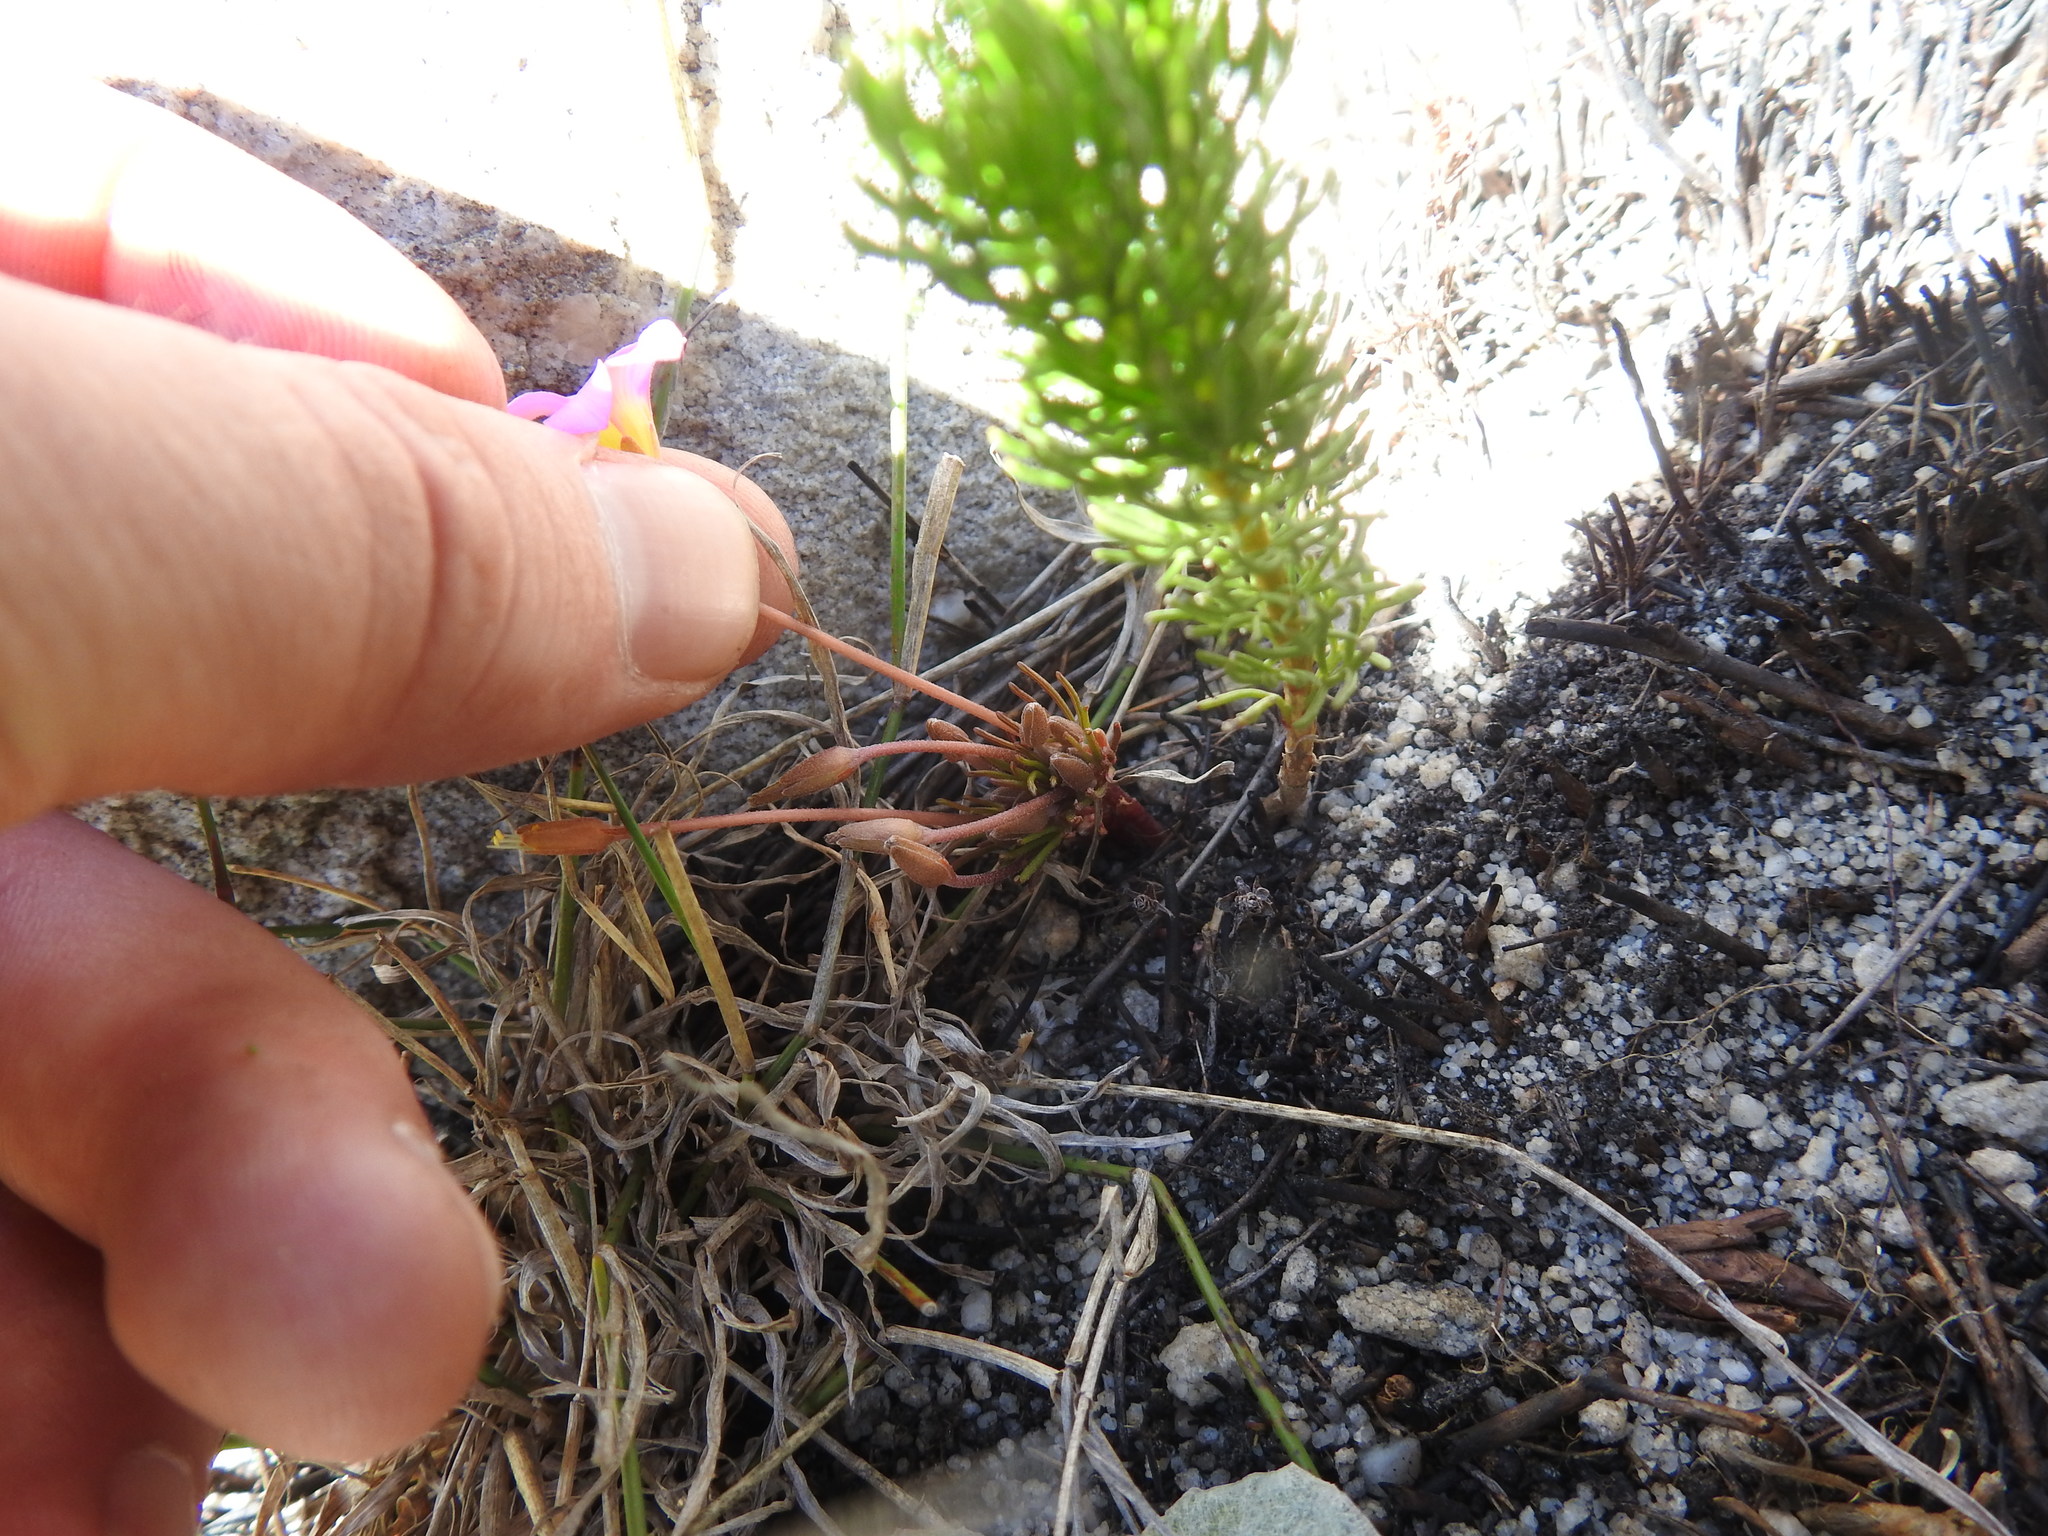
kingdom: Plantae
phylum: Tracheophyta
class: Magnoliopsida
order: Oxalidales
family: Oxalidaceae
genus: Oxalis
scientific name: Oxalis polyphylla
